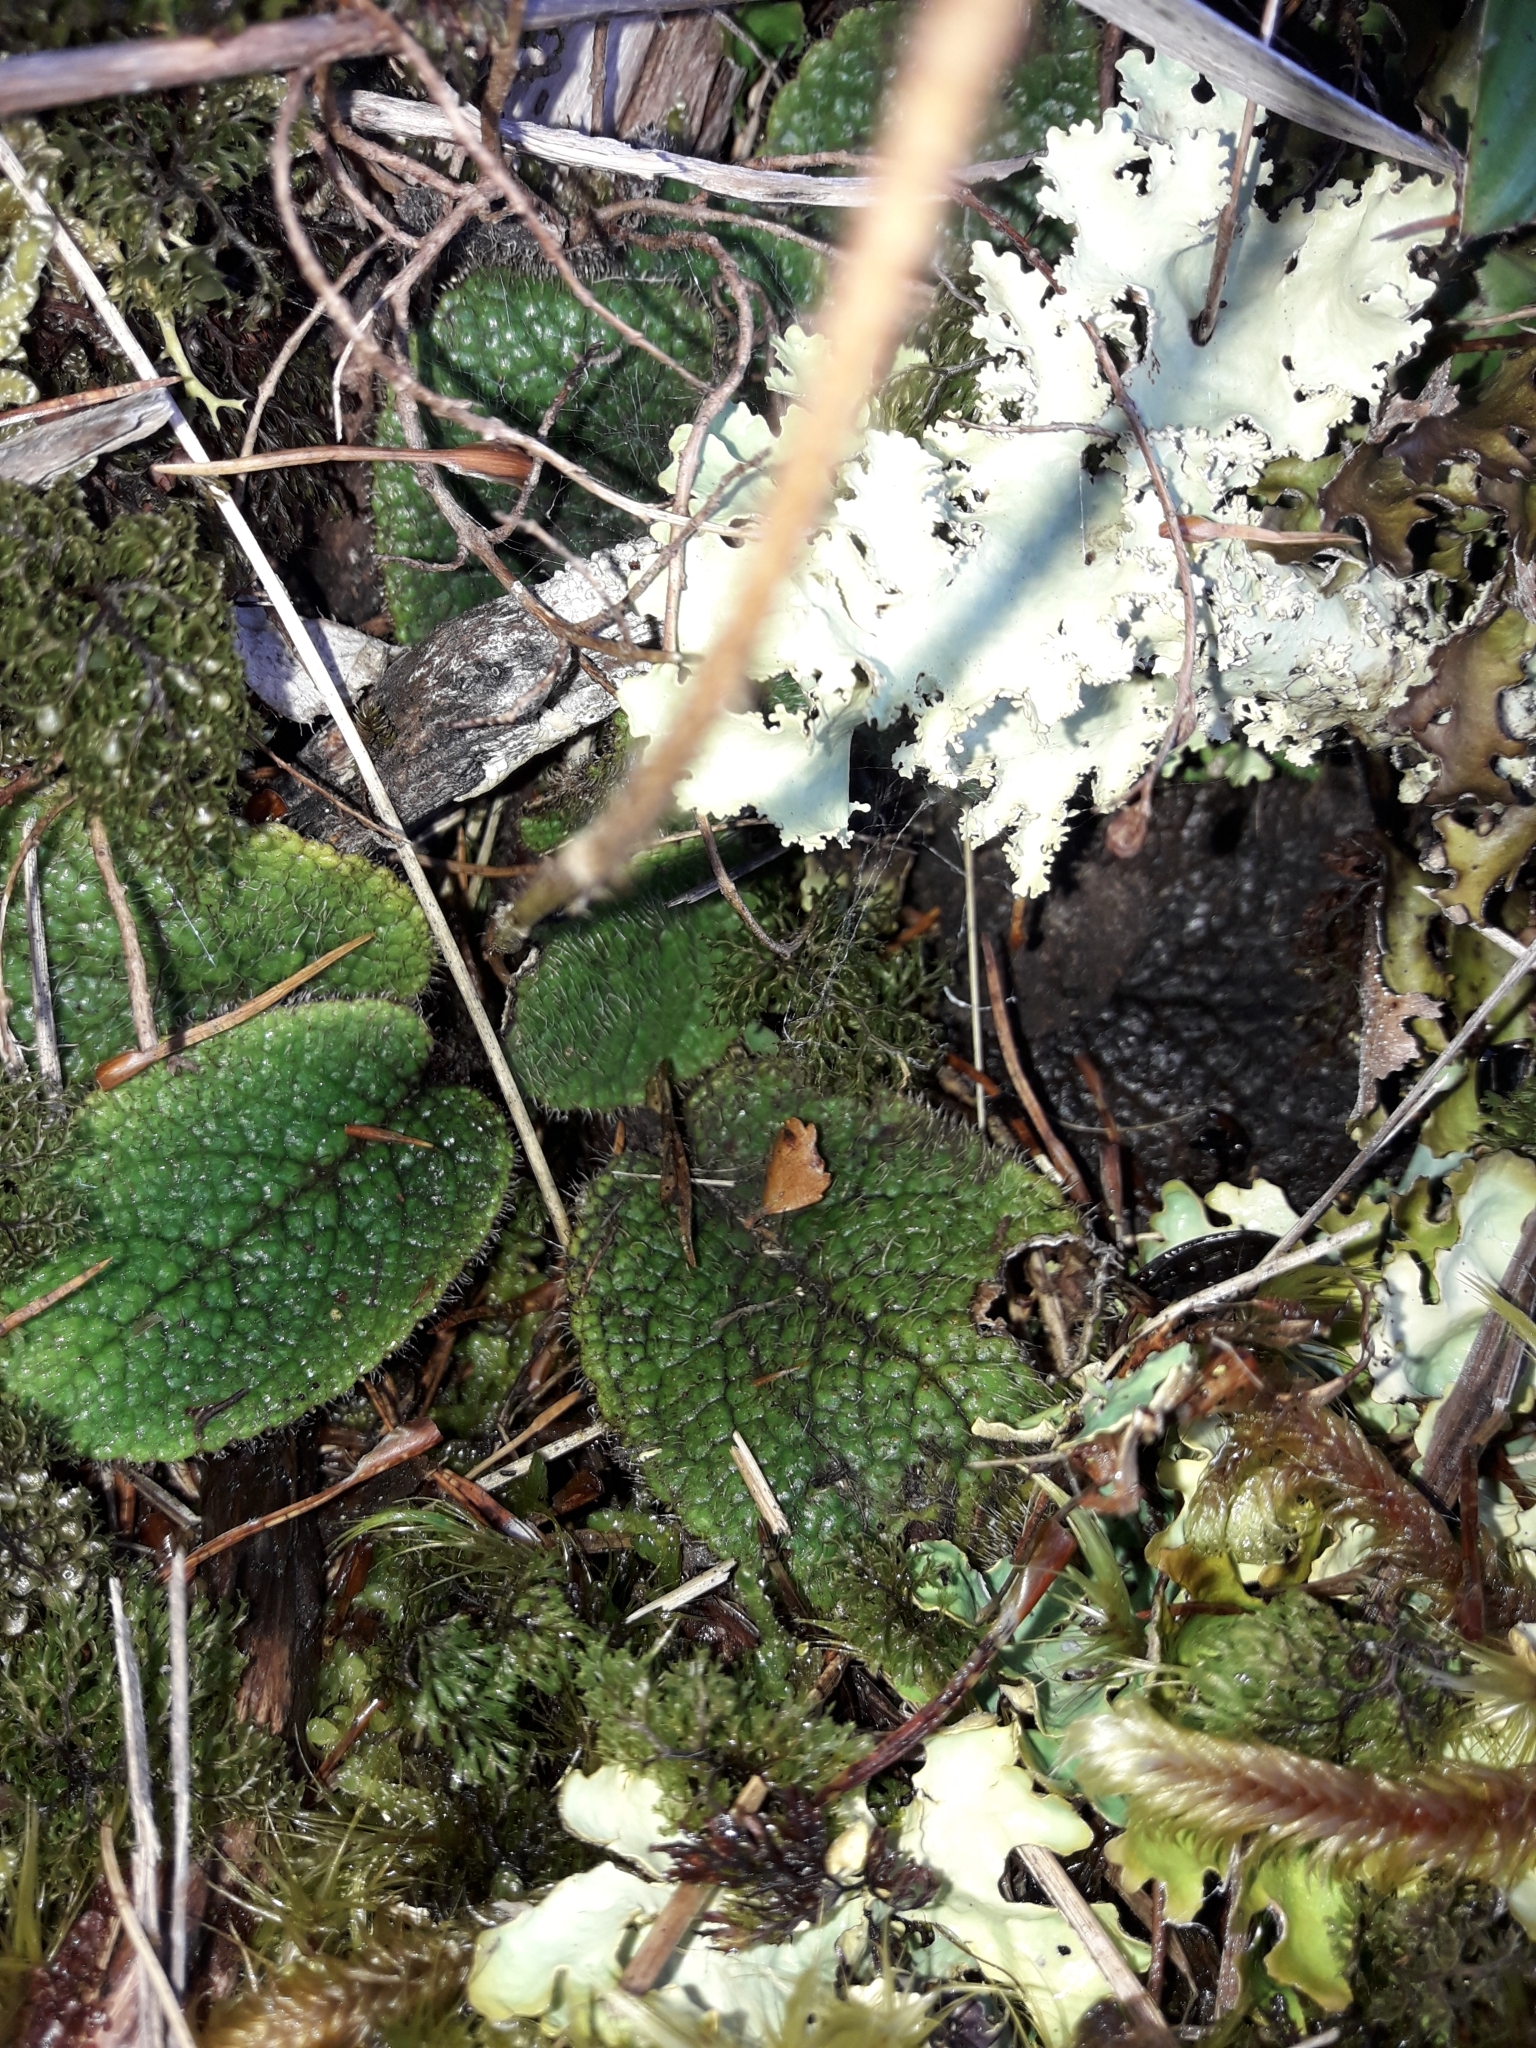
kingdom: Plantae
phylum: Tracheophyta
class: Magnoliopsida
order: Asterales
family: Asteraceae
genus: Brachyglottis
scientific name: Brachyglottis lagopus
